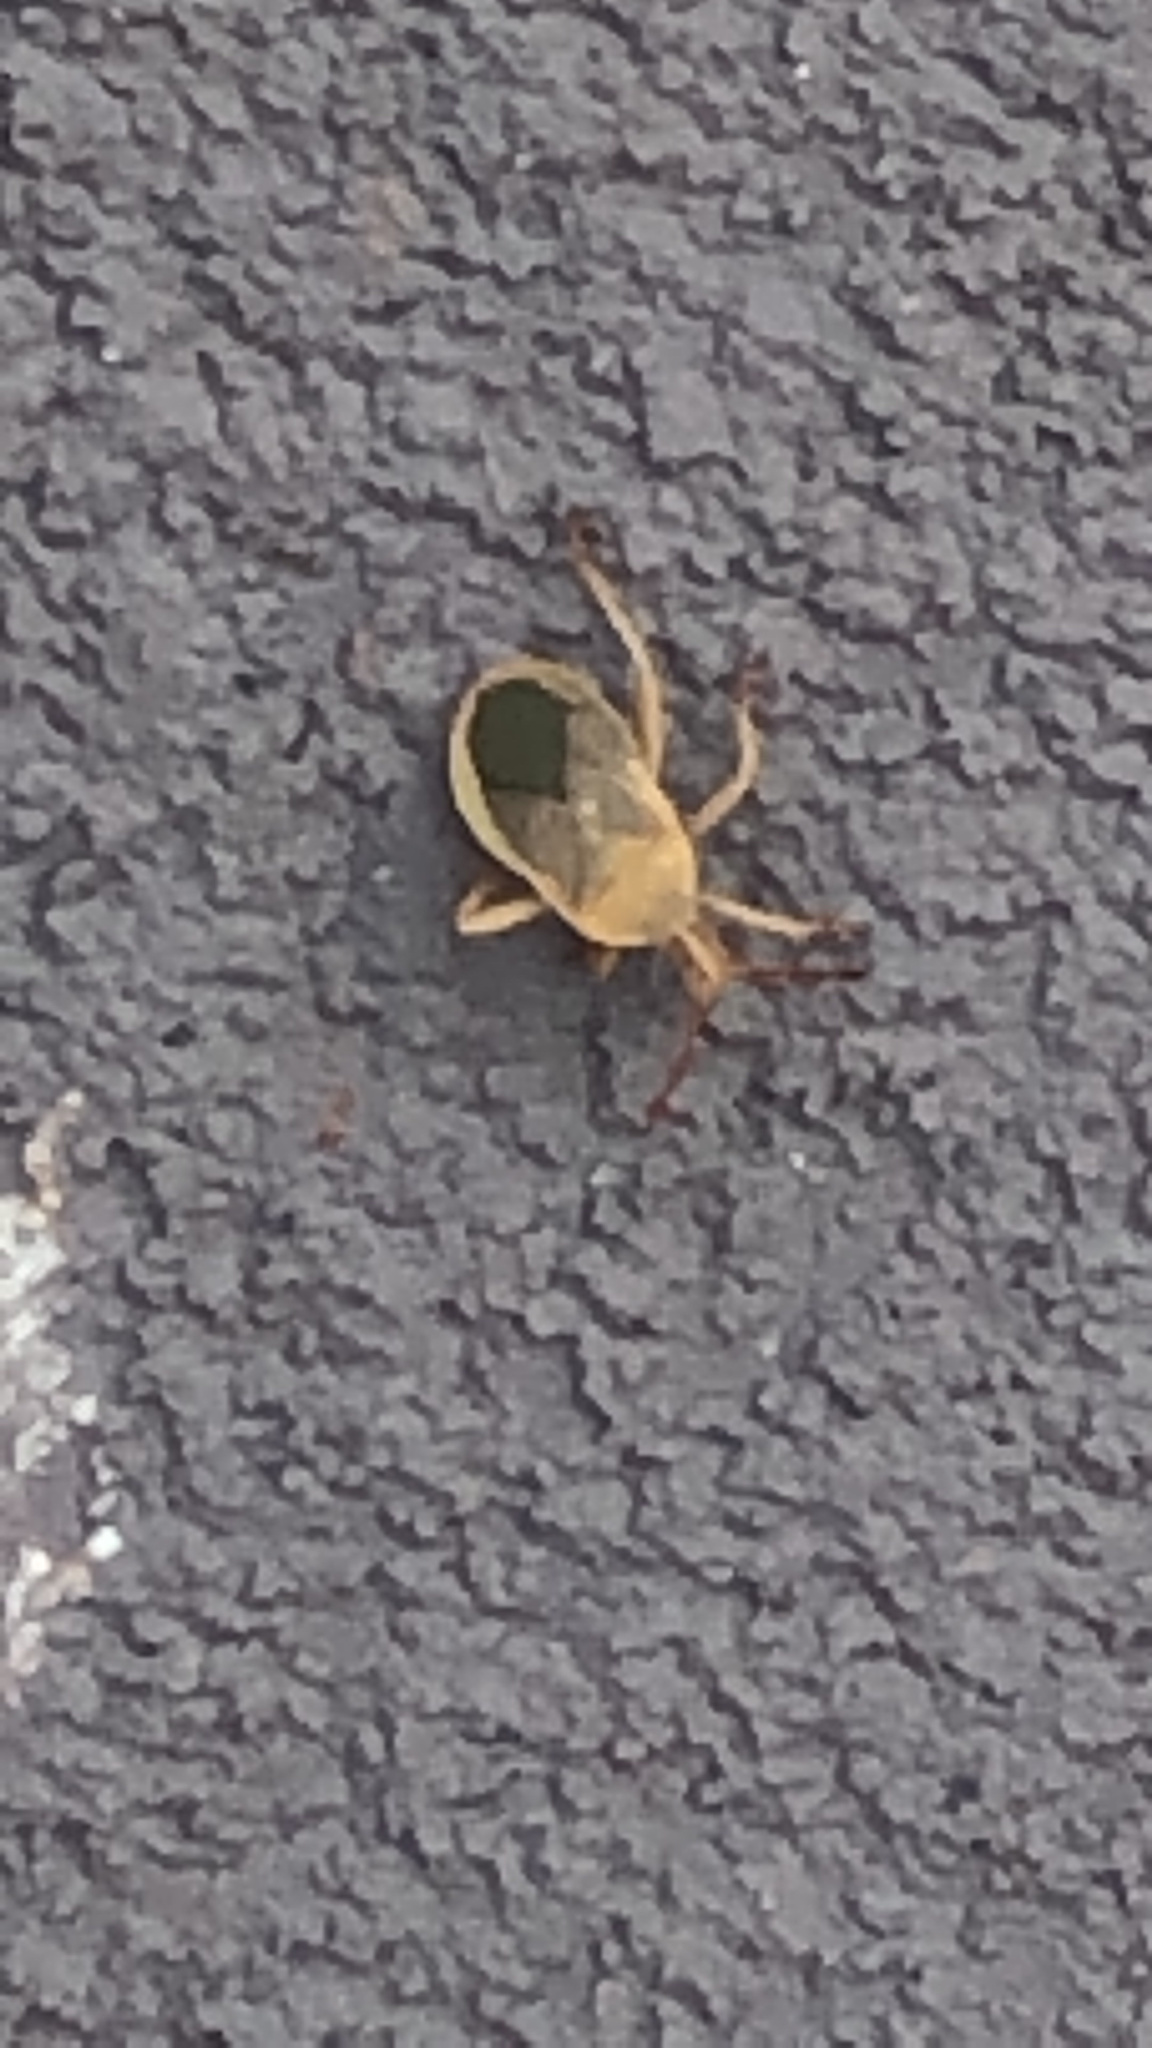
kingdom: Animalia
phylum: Arthropoda
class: Insecta
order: Hemiptera
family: Coreidae
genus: Chelinidea
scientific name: Chelinidea vittiger
